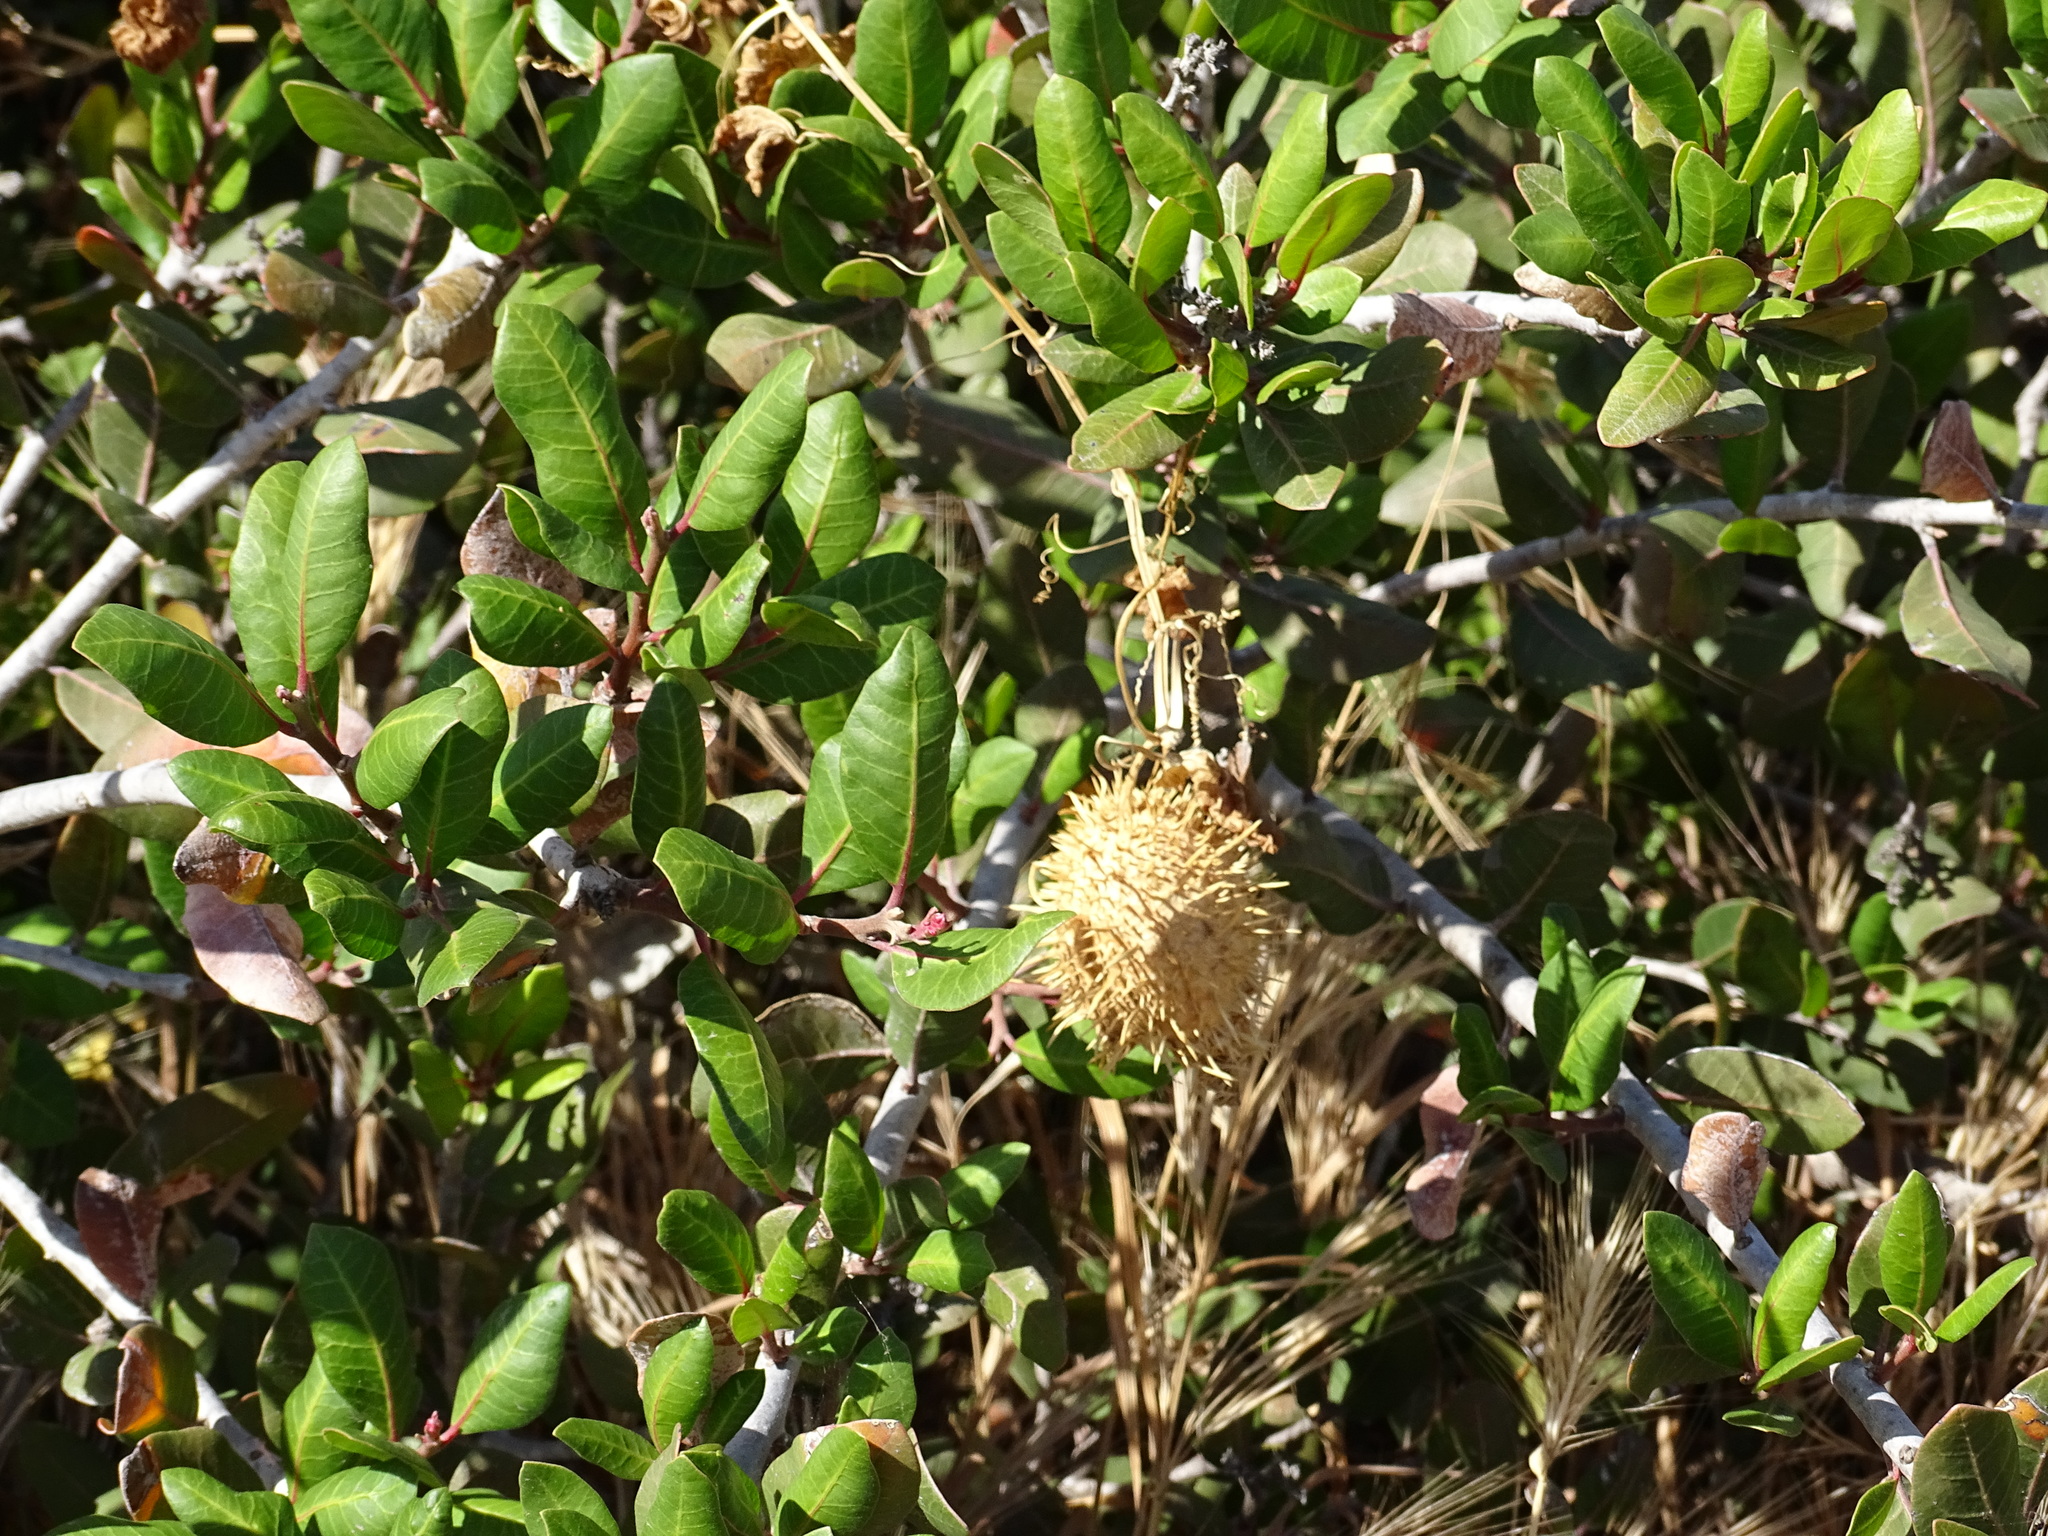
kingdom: Plantae
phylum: Tracheophyta
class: Magnoliopsida
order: Cucurbitales
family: Cucurbitaceae
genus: Marah
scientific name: Marah macrocarpa
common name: Cucamonga manroot
